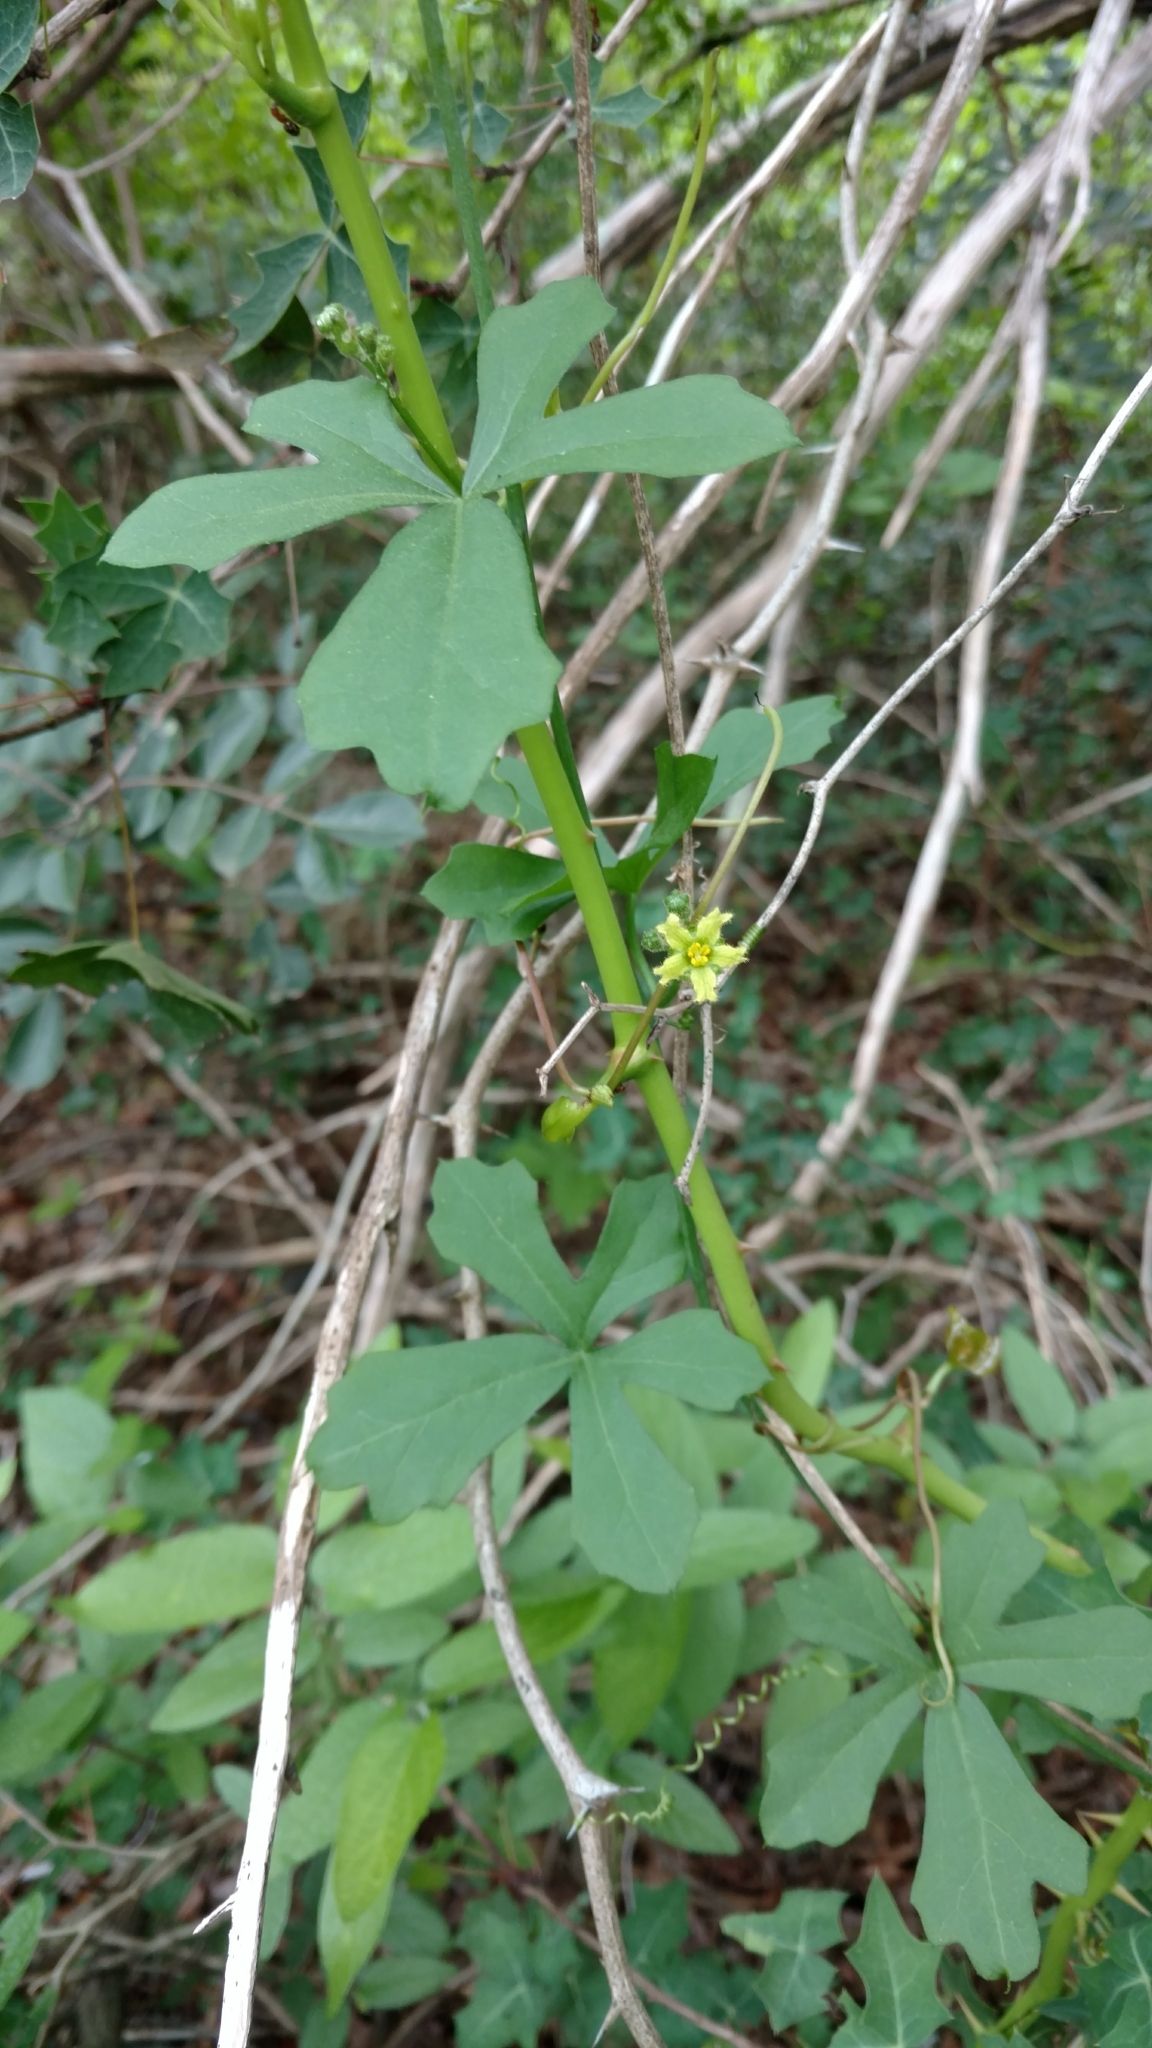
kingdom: Plantae
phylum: Tracheophyta
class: Magnoliopsida
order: Cucurbitales
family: Cucurbitaceae
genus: Ibervillea
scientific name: Ibervillea lindheimeri
